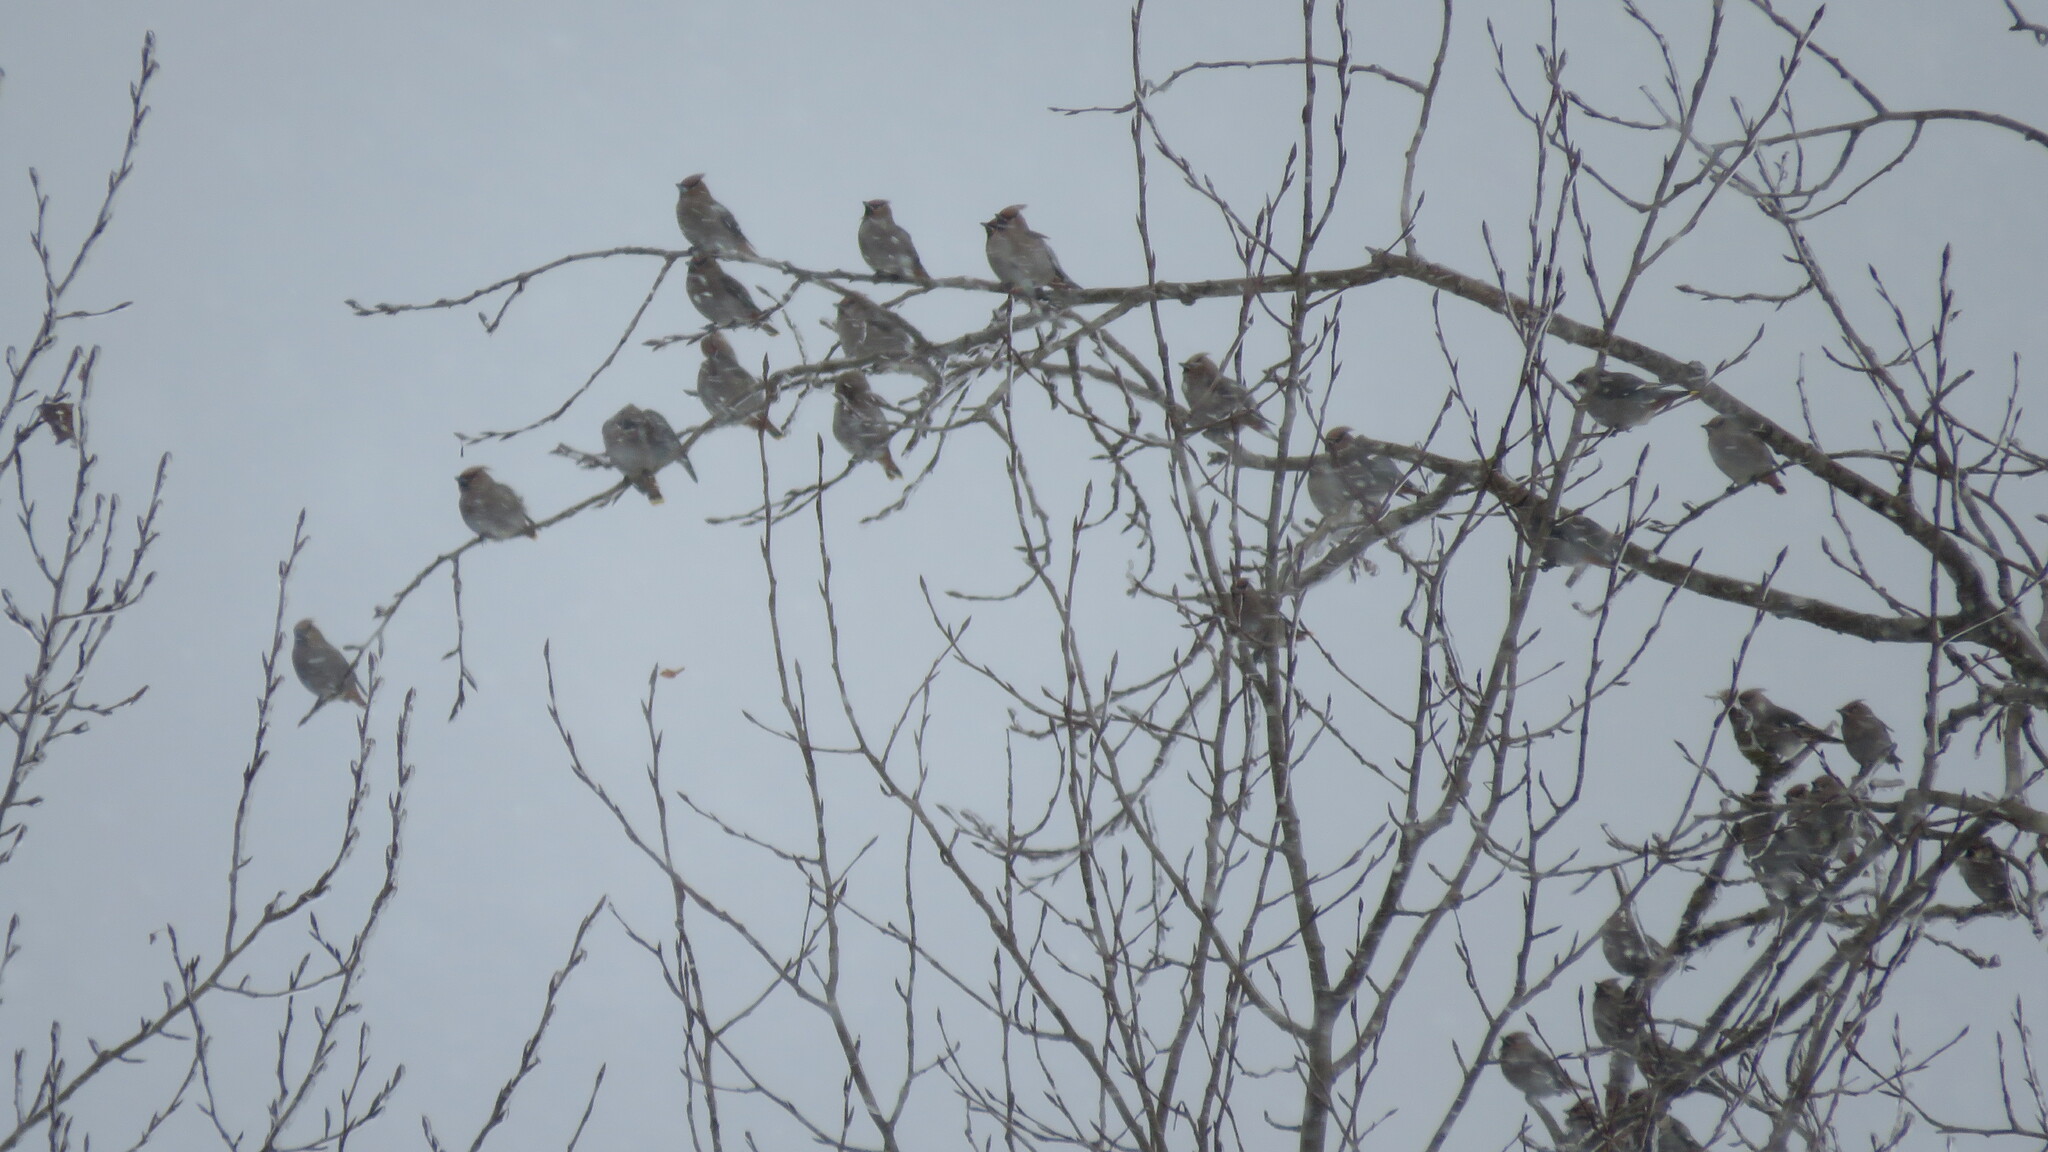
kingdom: Animalia
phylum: Chordata
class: Aves
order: Passeriformes
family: Bombycillidae
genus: Bombycilla
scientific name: Bombycilla garrulus
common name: Bohemian waxwing
